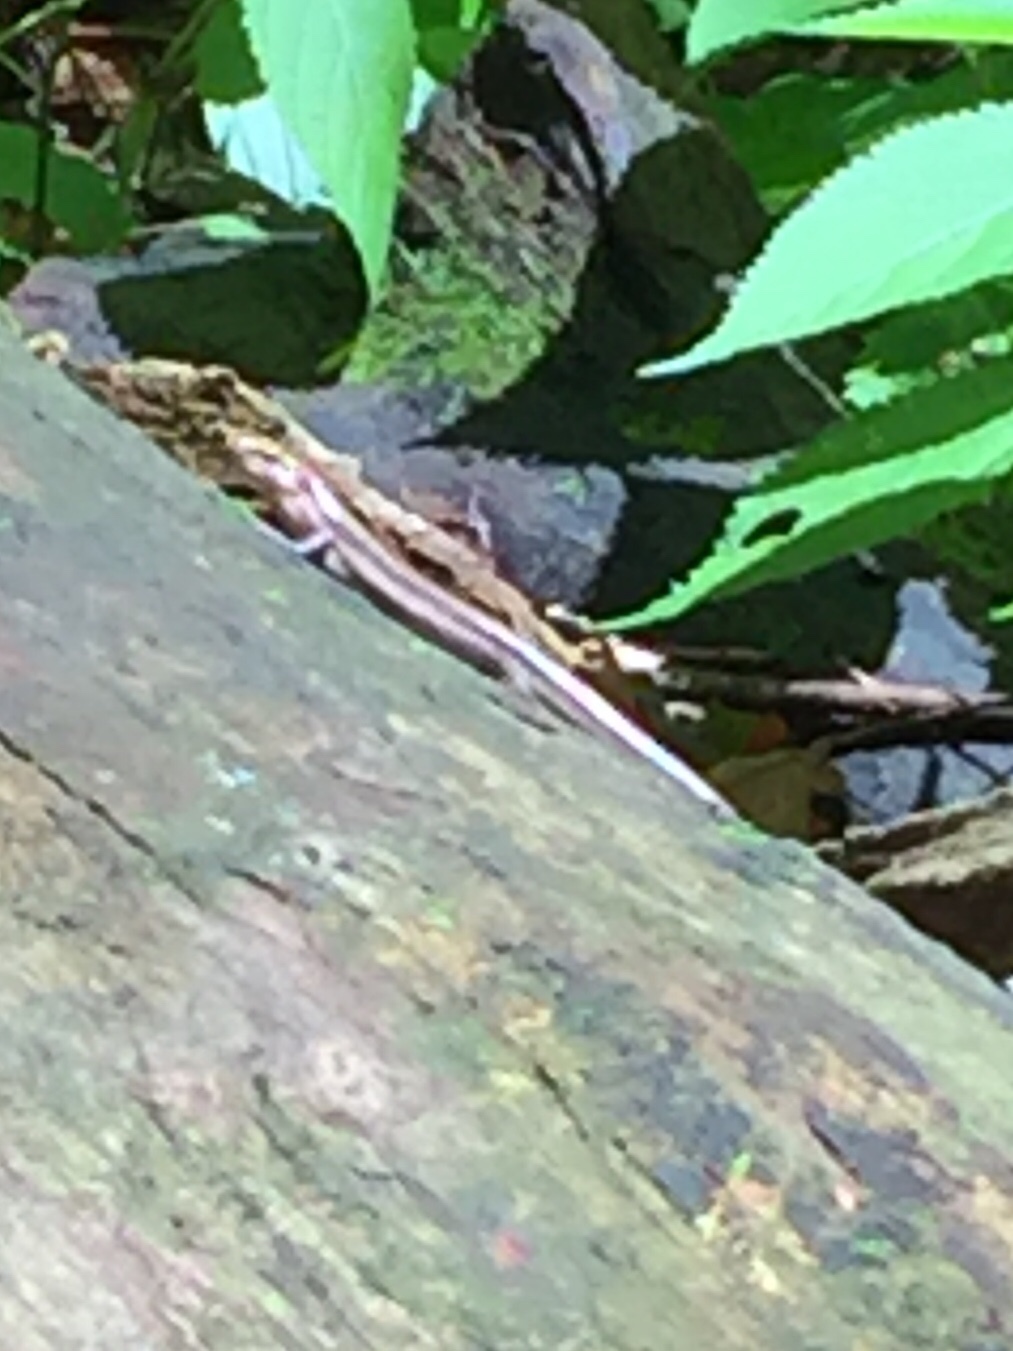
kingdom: Animalia
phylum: Chordata
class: Squamata
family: Scincidae
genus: Plestiodon
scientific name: Plestiodon fasciatus
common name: Five-lined skink
